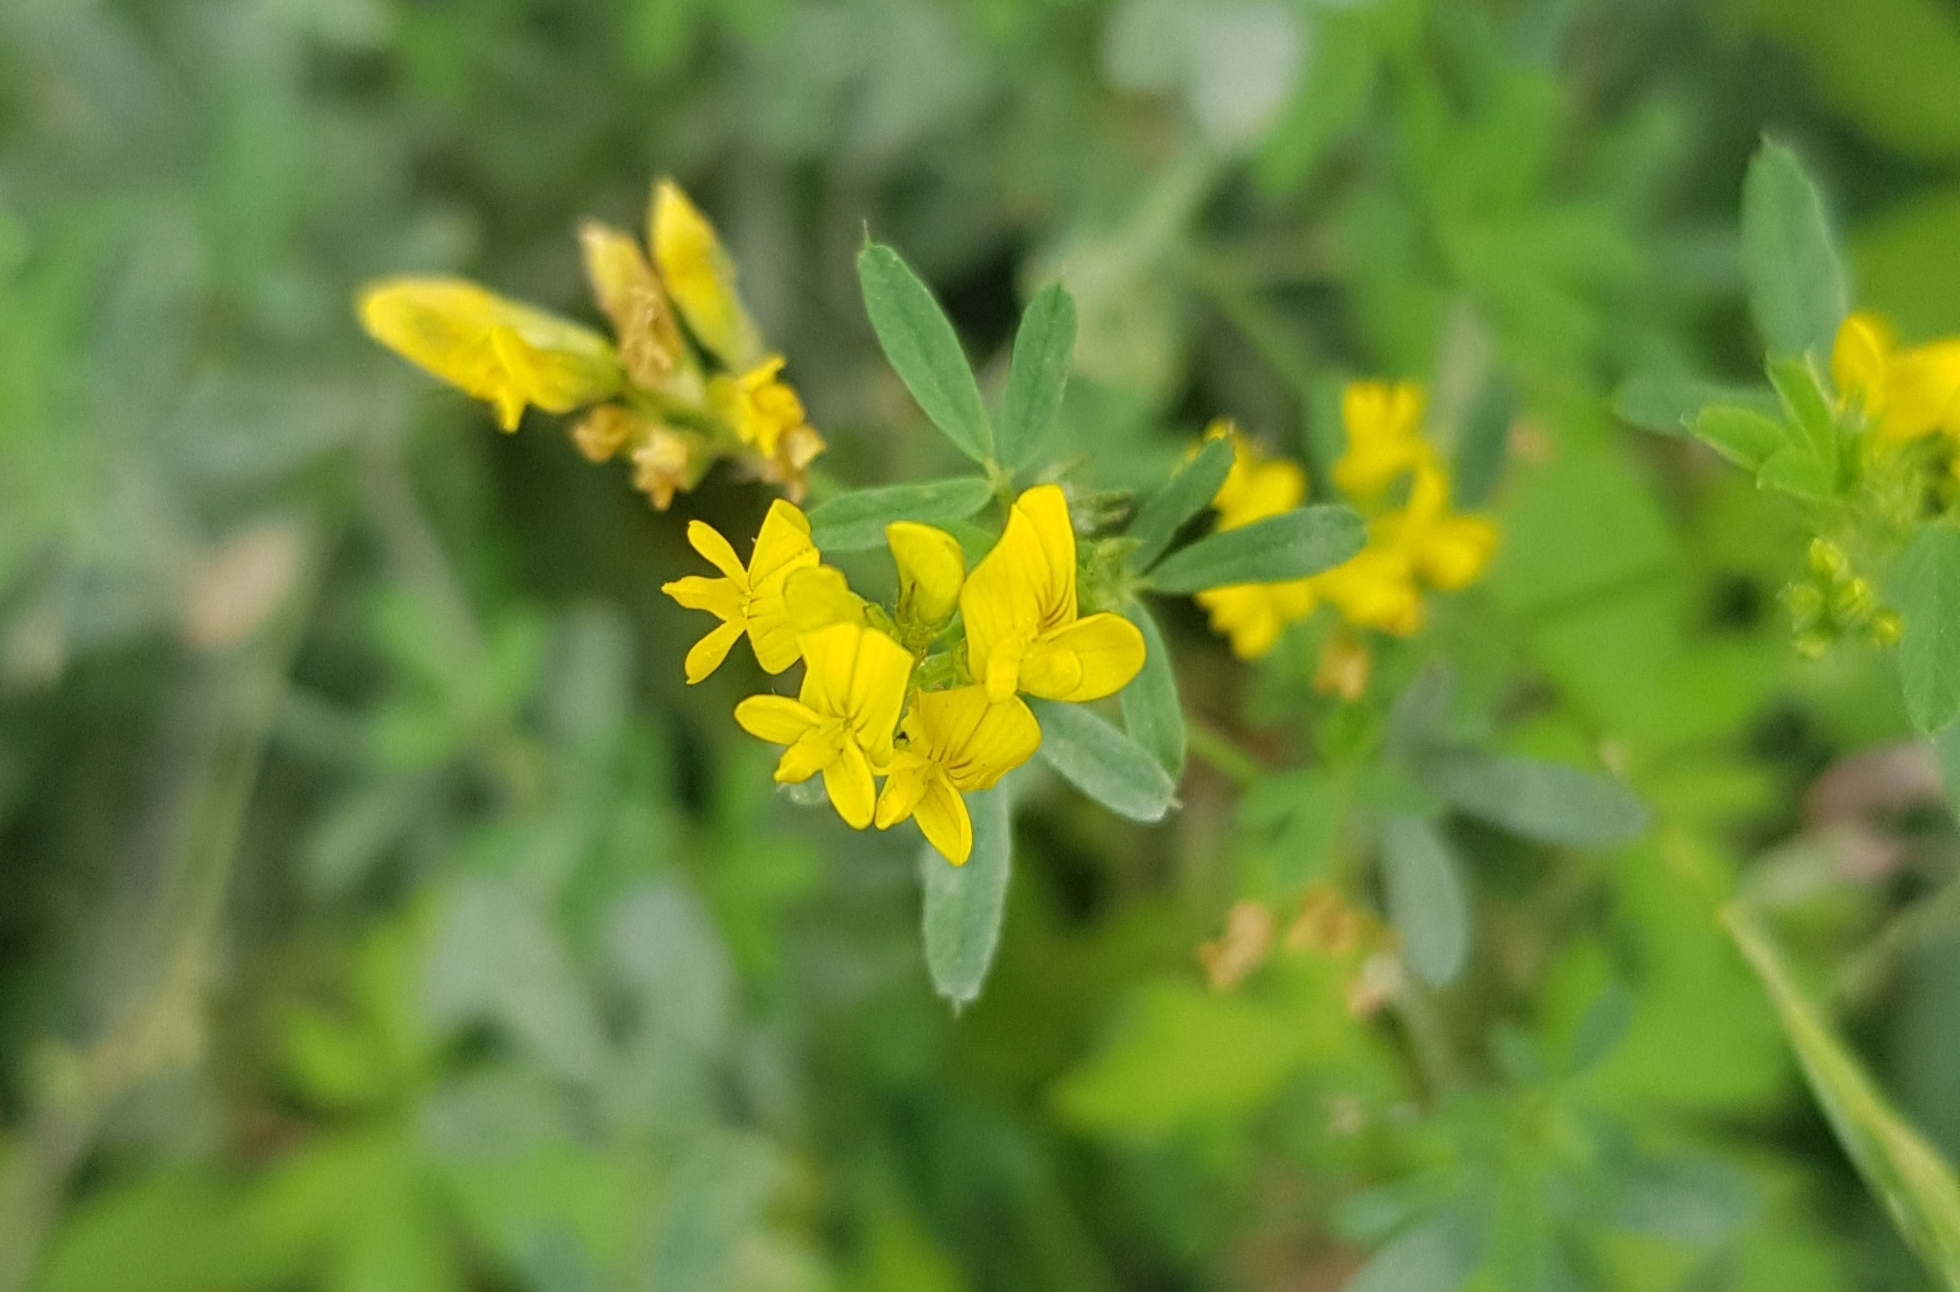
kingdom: Plantae
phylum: Tracheophyta
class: Magnoliopsida
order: Fabales
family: Fabaceae
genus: Medicago
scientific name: Medicago falcata
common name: Sickle medick
